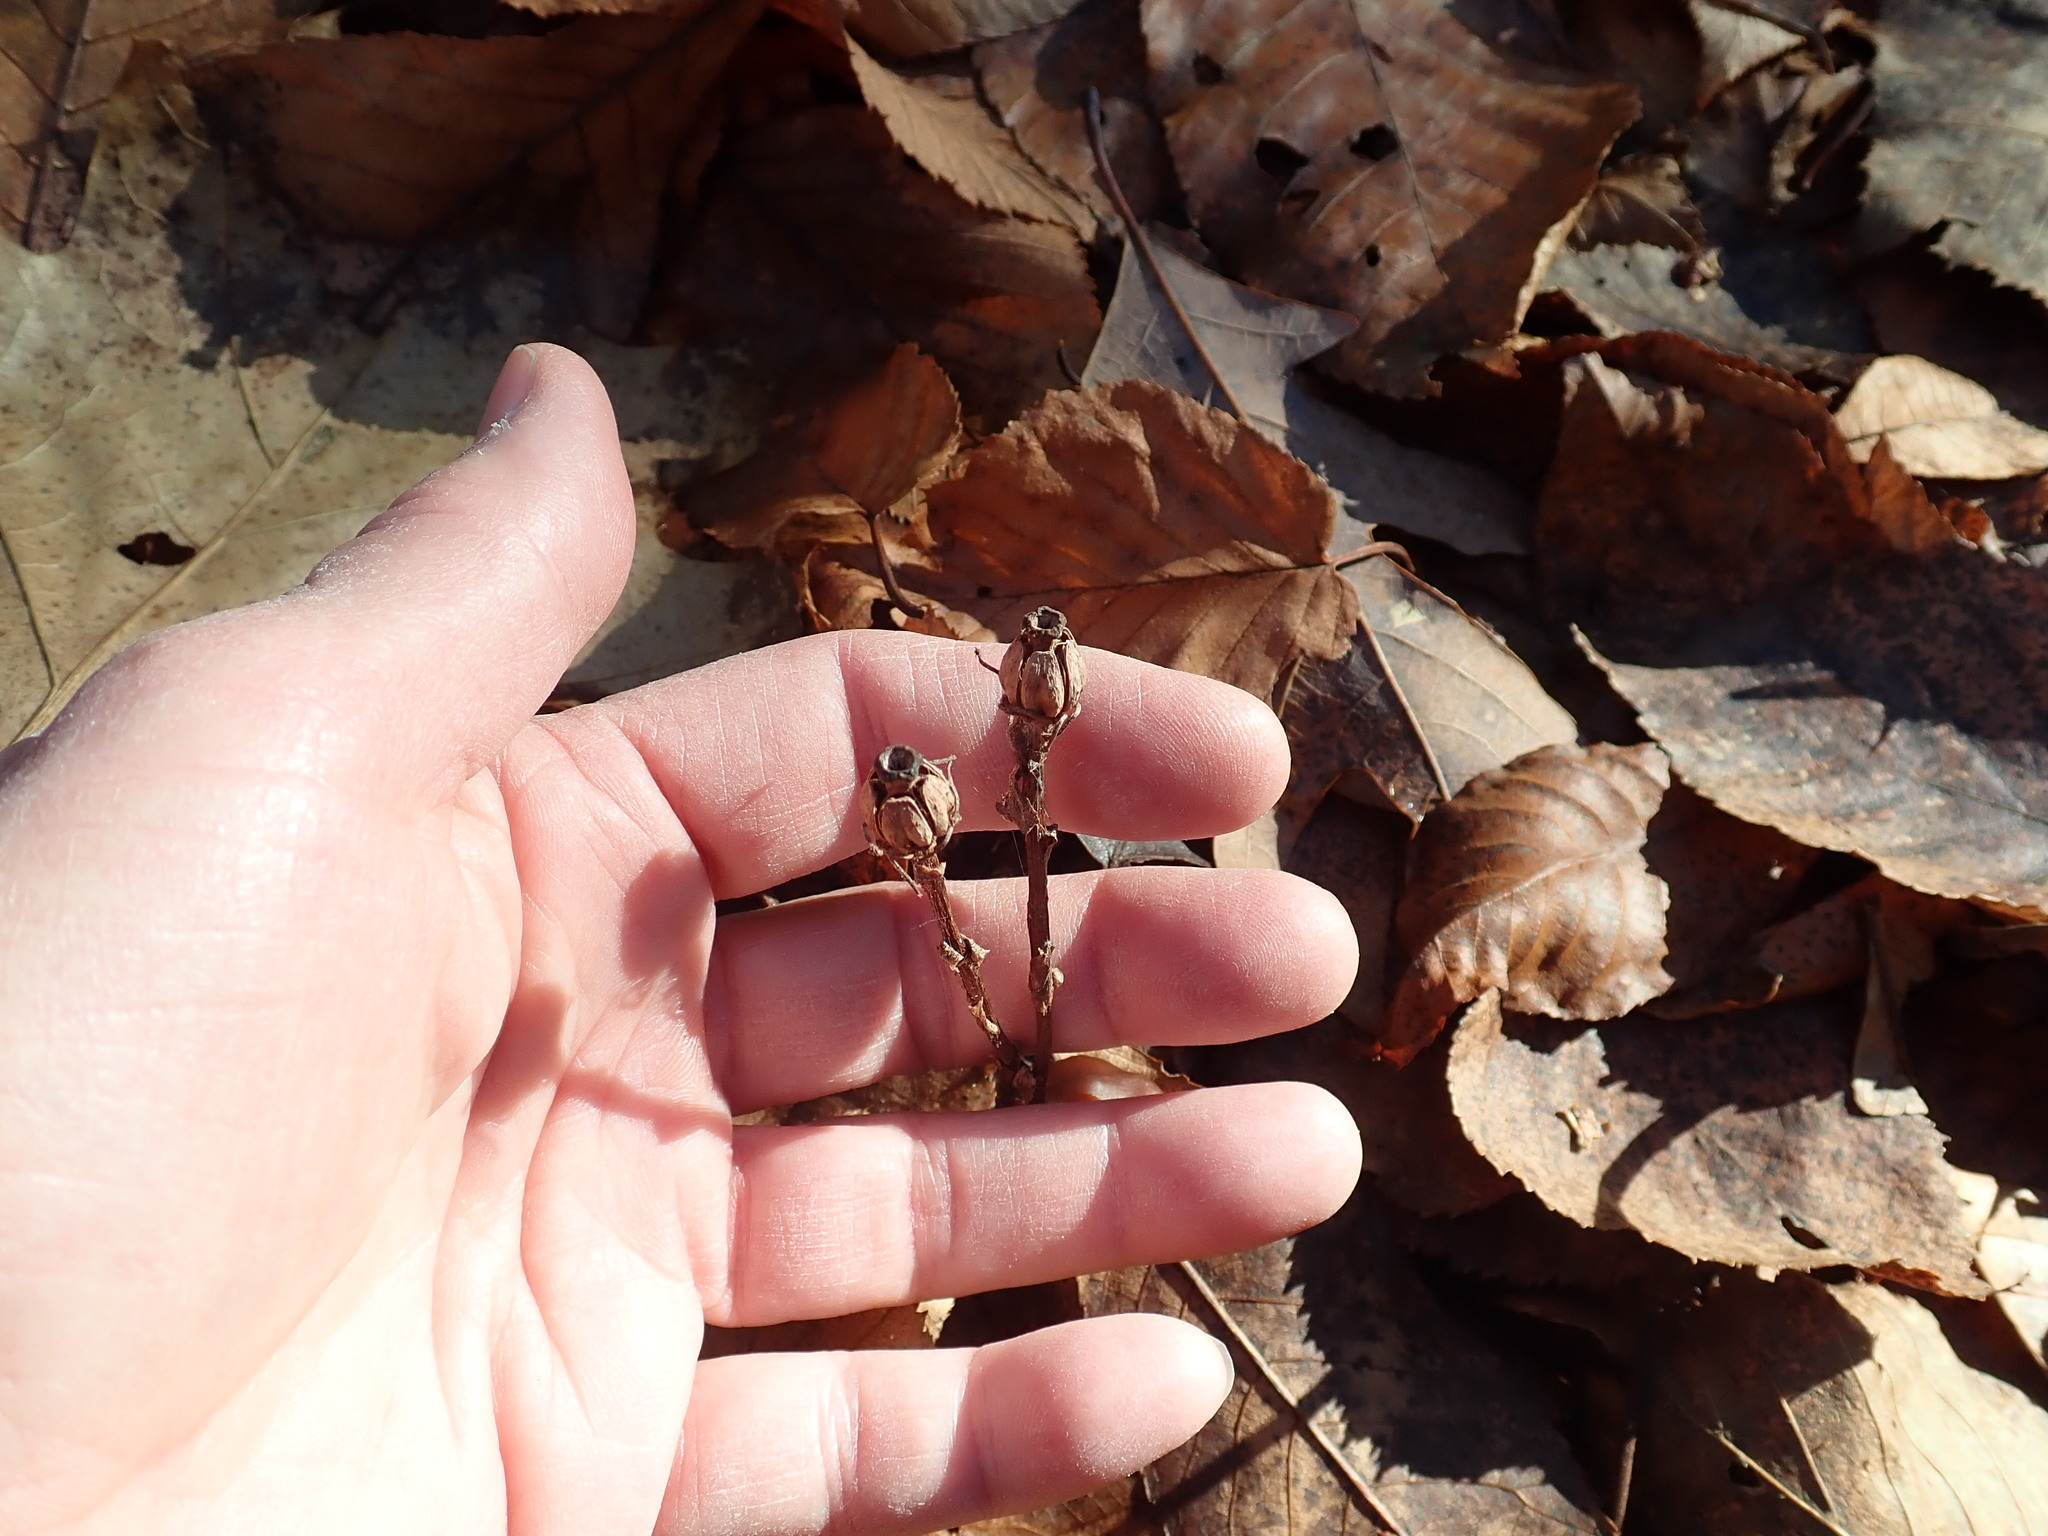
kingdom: Plantae
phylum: Tracheophyta
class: Magnoliopsida
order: Ericales
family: Ericaceae
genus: Monotropa
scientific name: Monotropa uniflora
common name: Convulsion root
